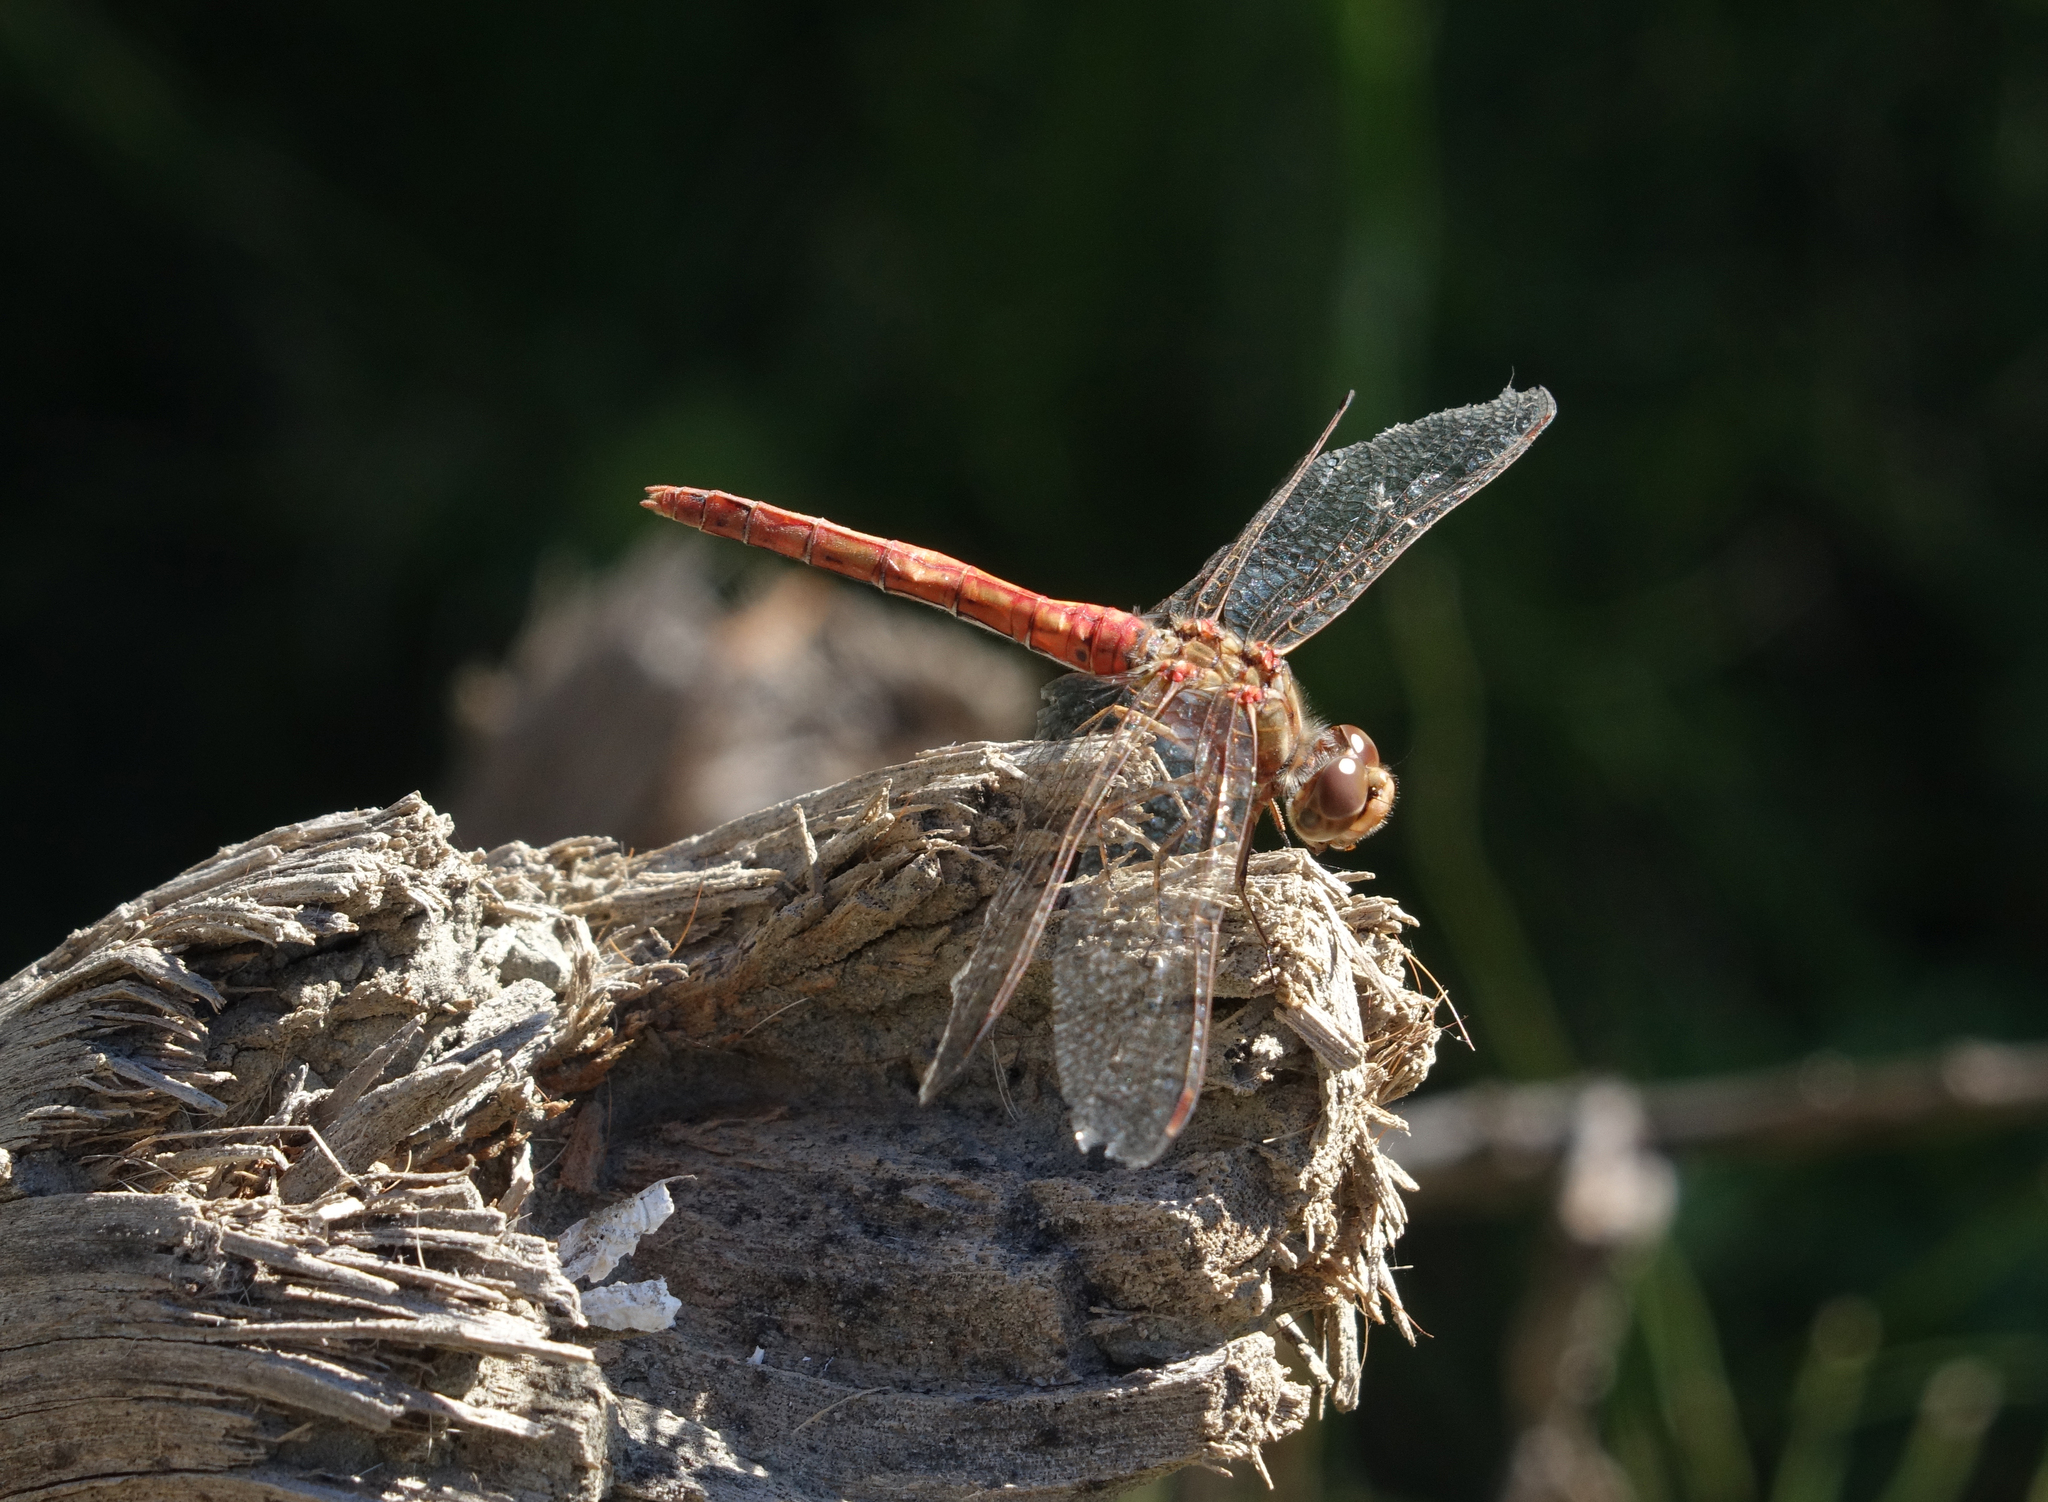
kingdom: Animalia
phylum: Arthropoda
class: Insecta
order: Odonata
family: Libellulidae
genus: Sympetrum
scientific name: Sympetrum vulgatum
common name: Vagrant darter
